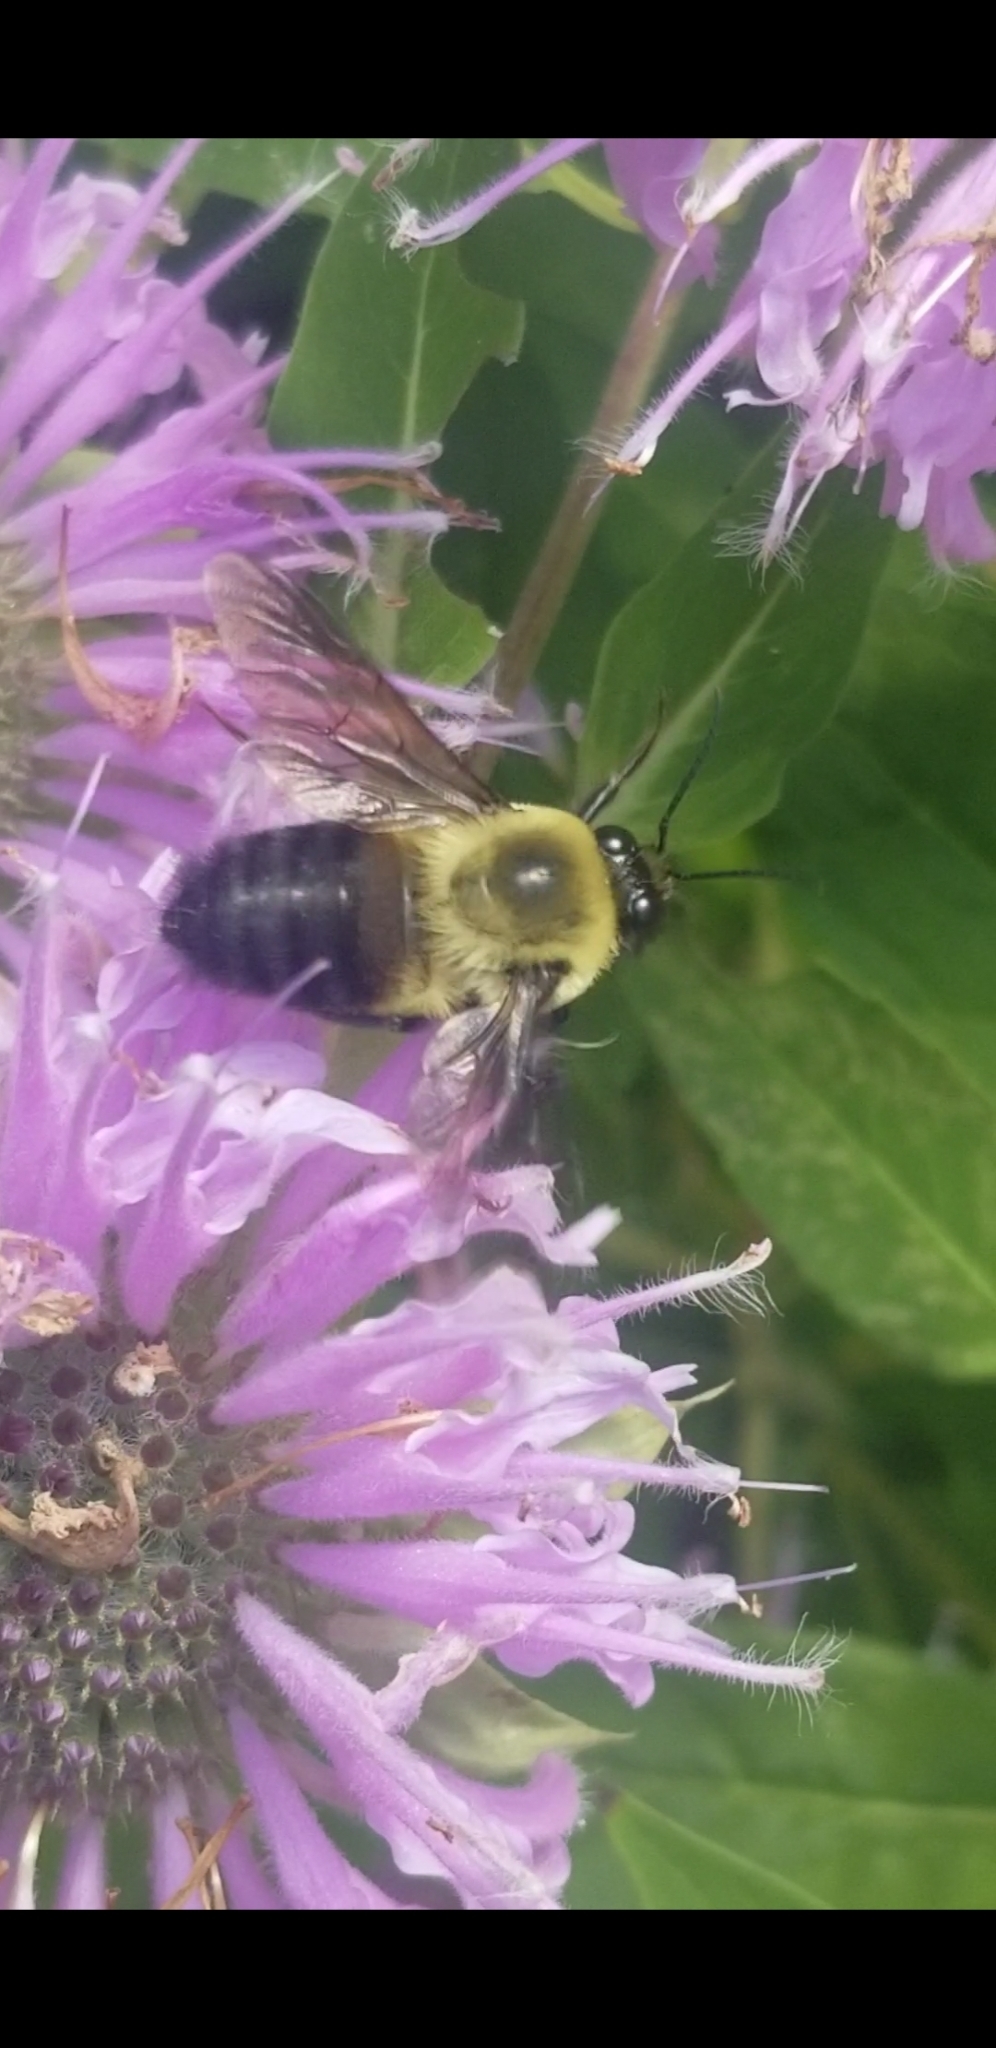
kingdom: Animalia
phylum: Arthropoda
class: Insecta
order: Hymenoptera
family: Apidae
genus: Bombus
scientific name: Bombus griseocollis
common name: Brown-belted bumble bee
